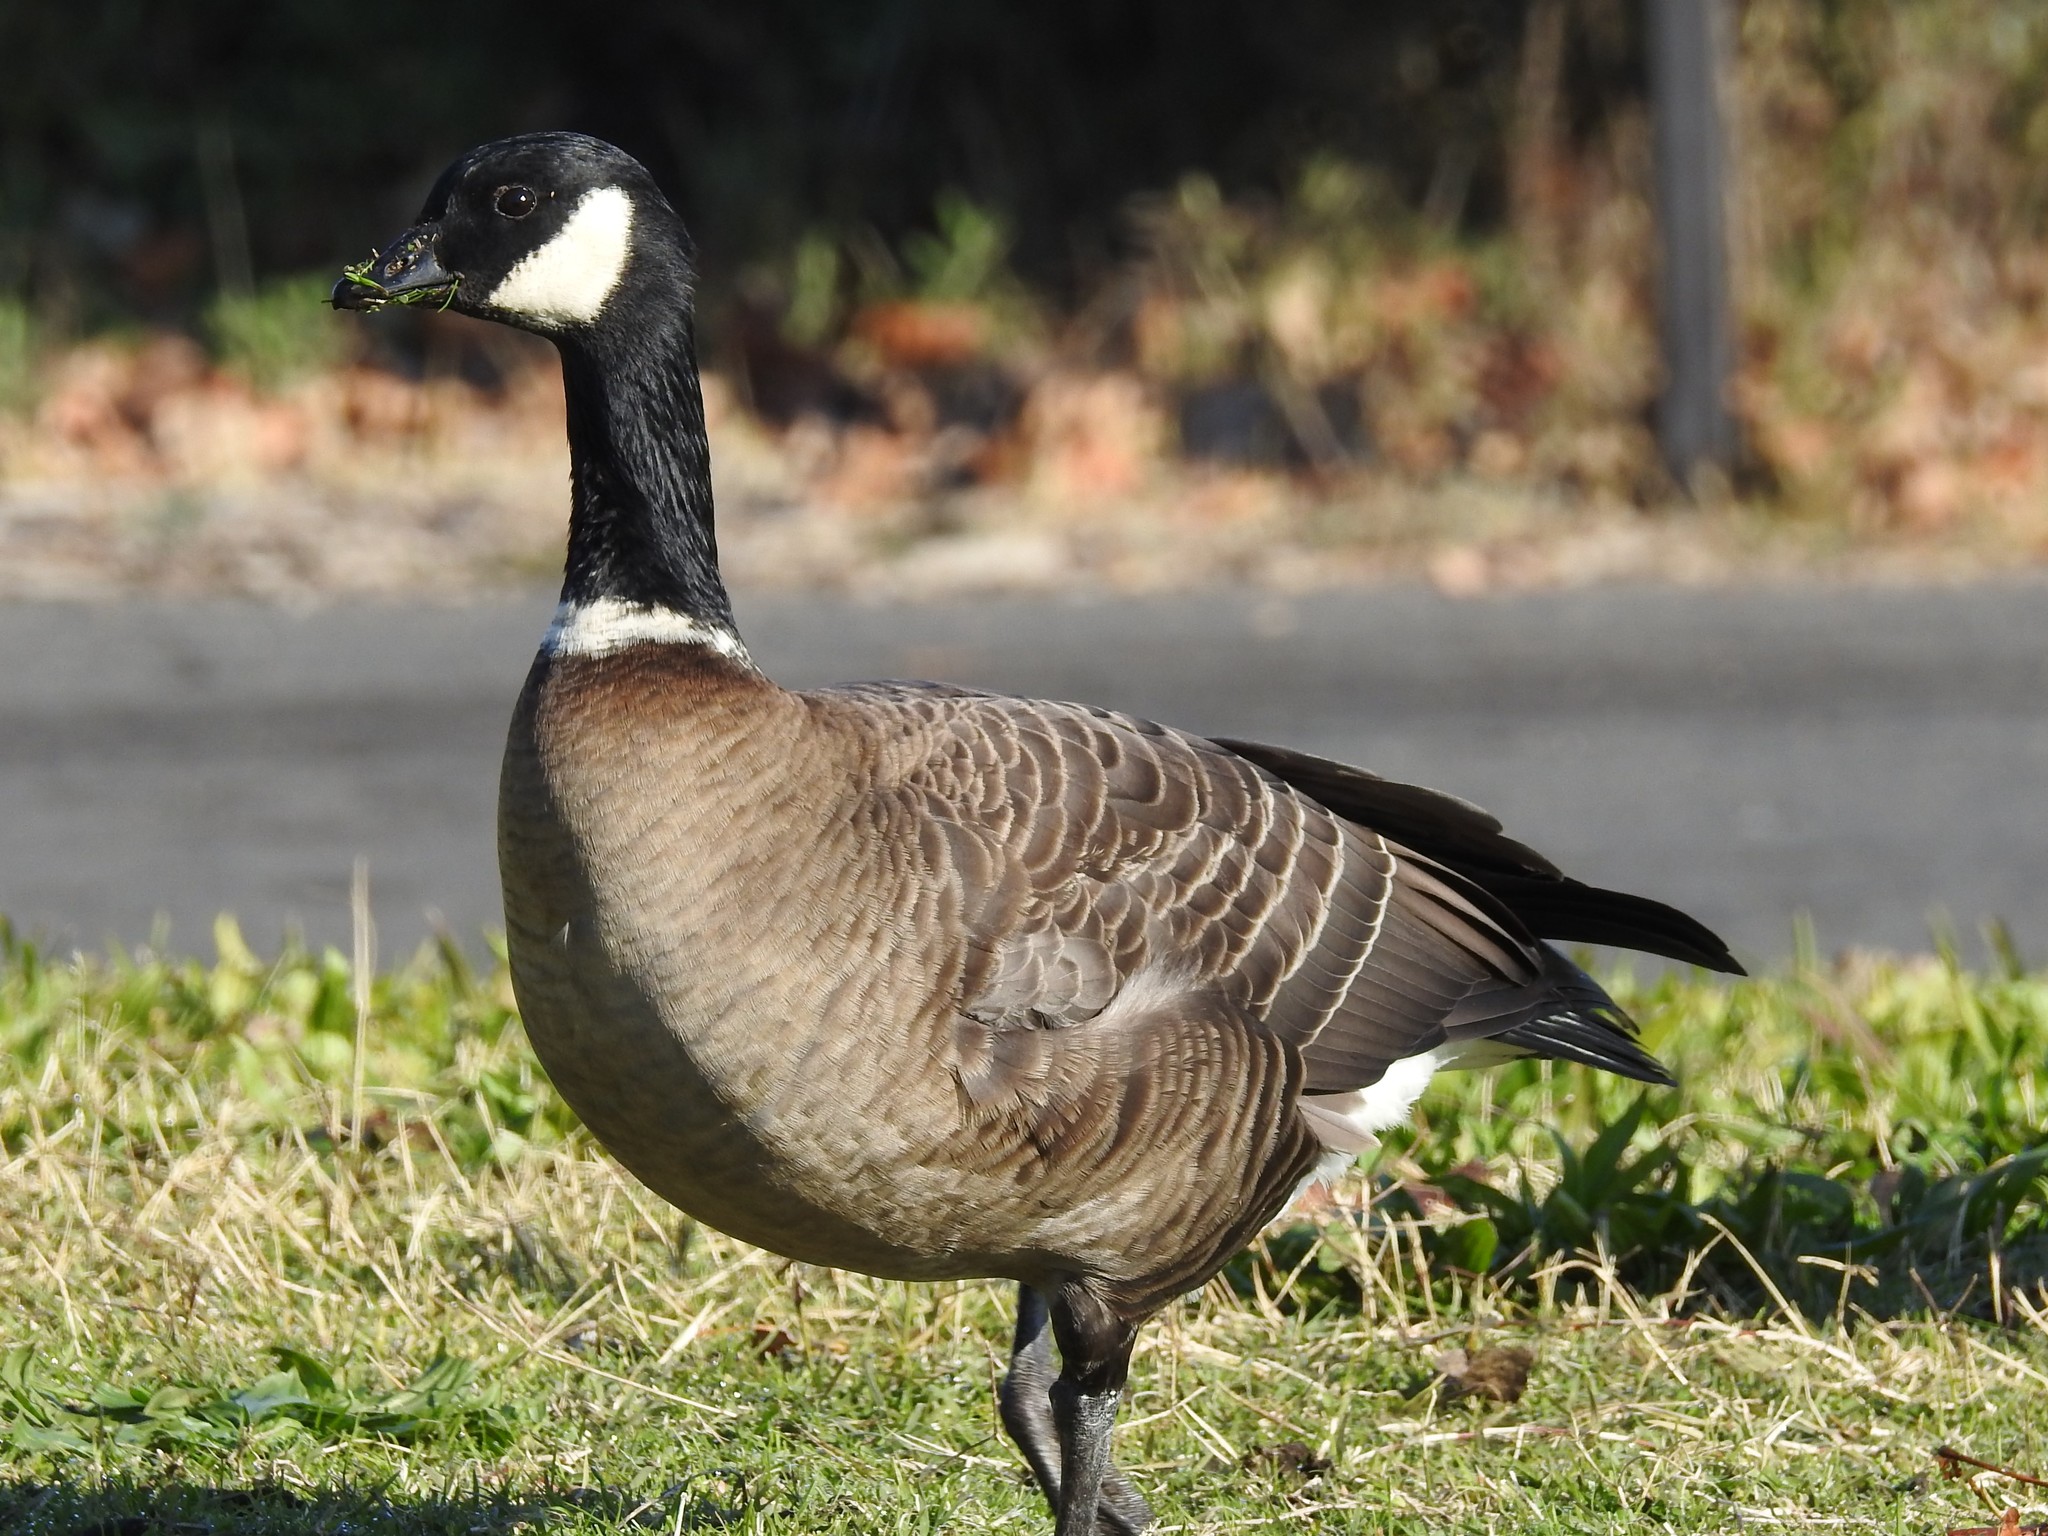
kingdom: Animalia
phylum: Chordata
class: Aves
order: Anseriformes
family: Anatidae
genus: Branta
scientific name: Branta hutchinsii
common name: Cackling goose
